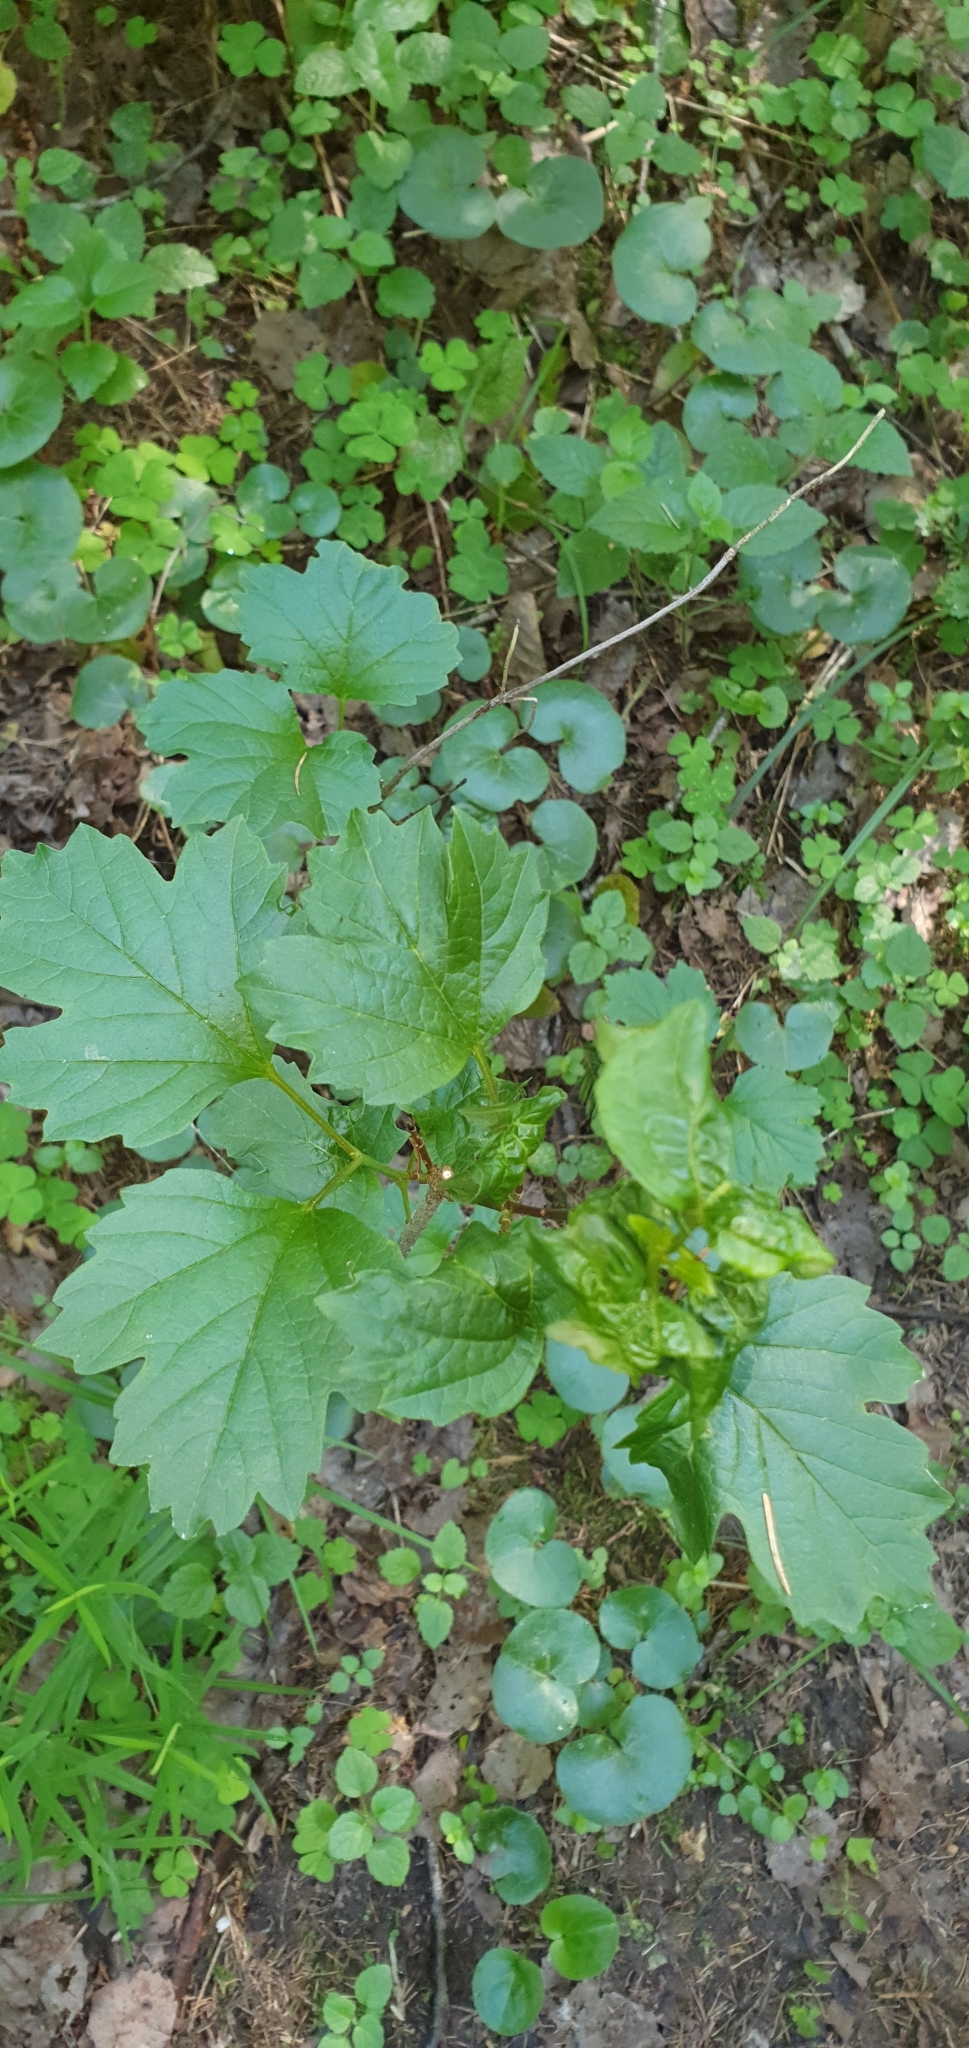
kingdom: Plantae
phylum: Tracheophyta
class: Magnoliopsida
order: Dipsacales
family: Viburnaceae
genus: Viburnum
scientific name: Viburnum opulus
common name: Guelder-rose
